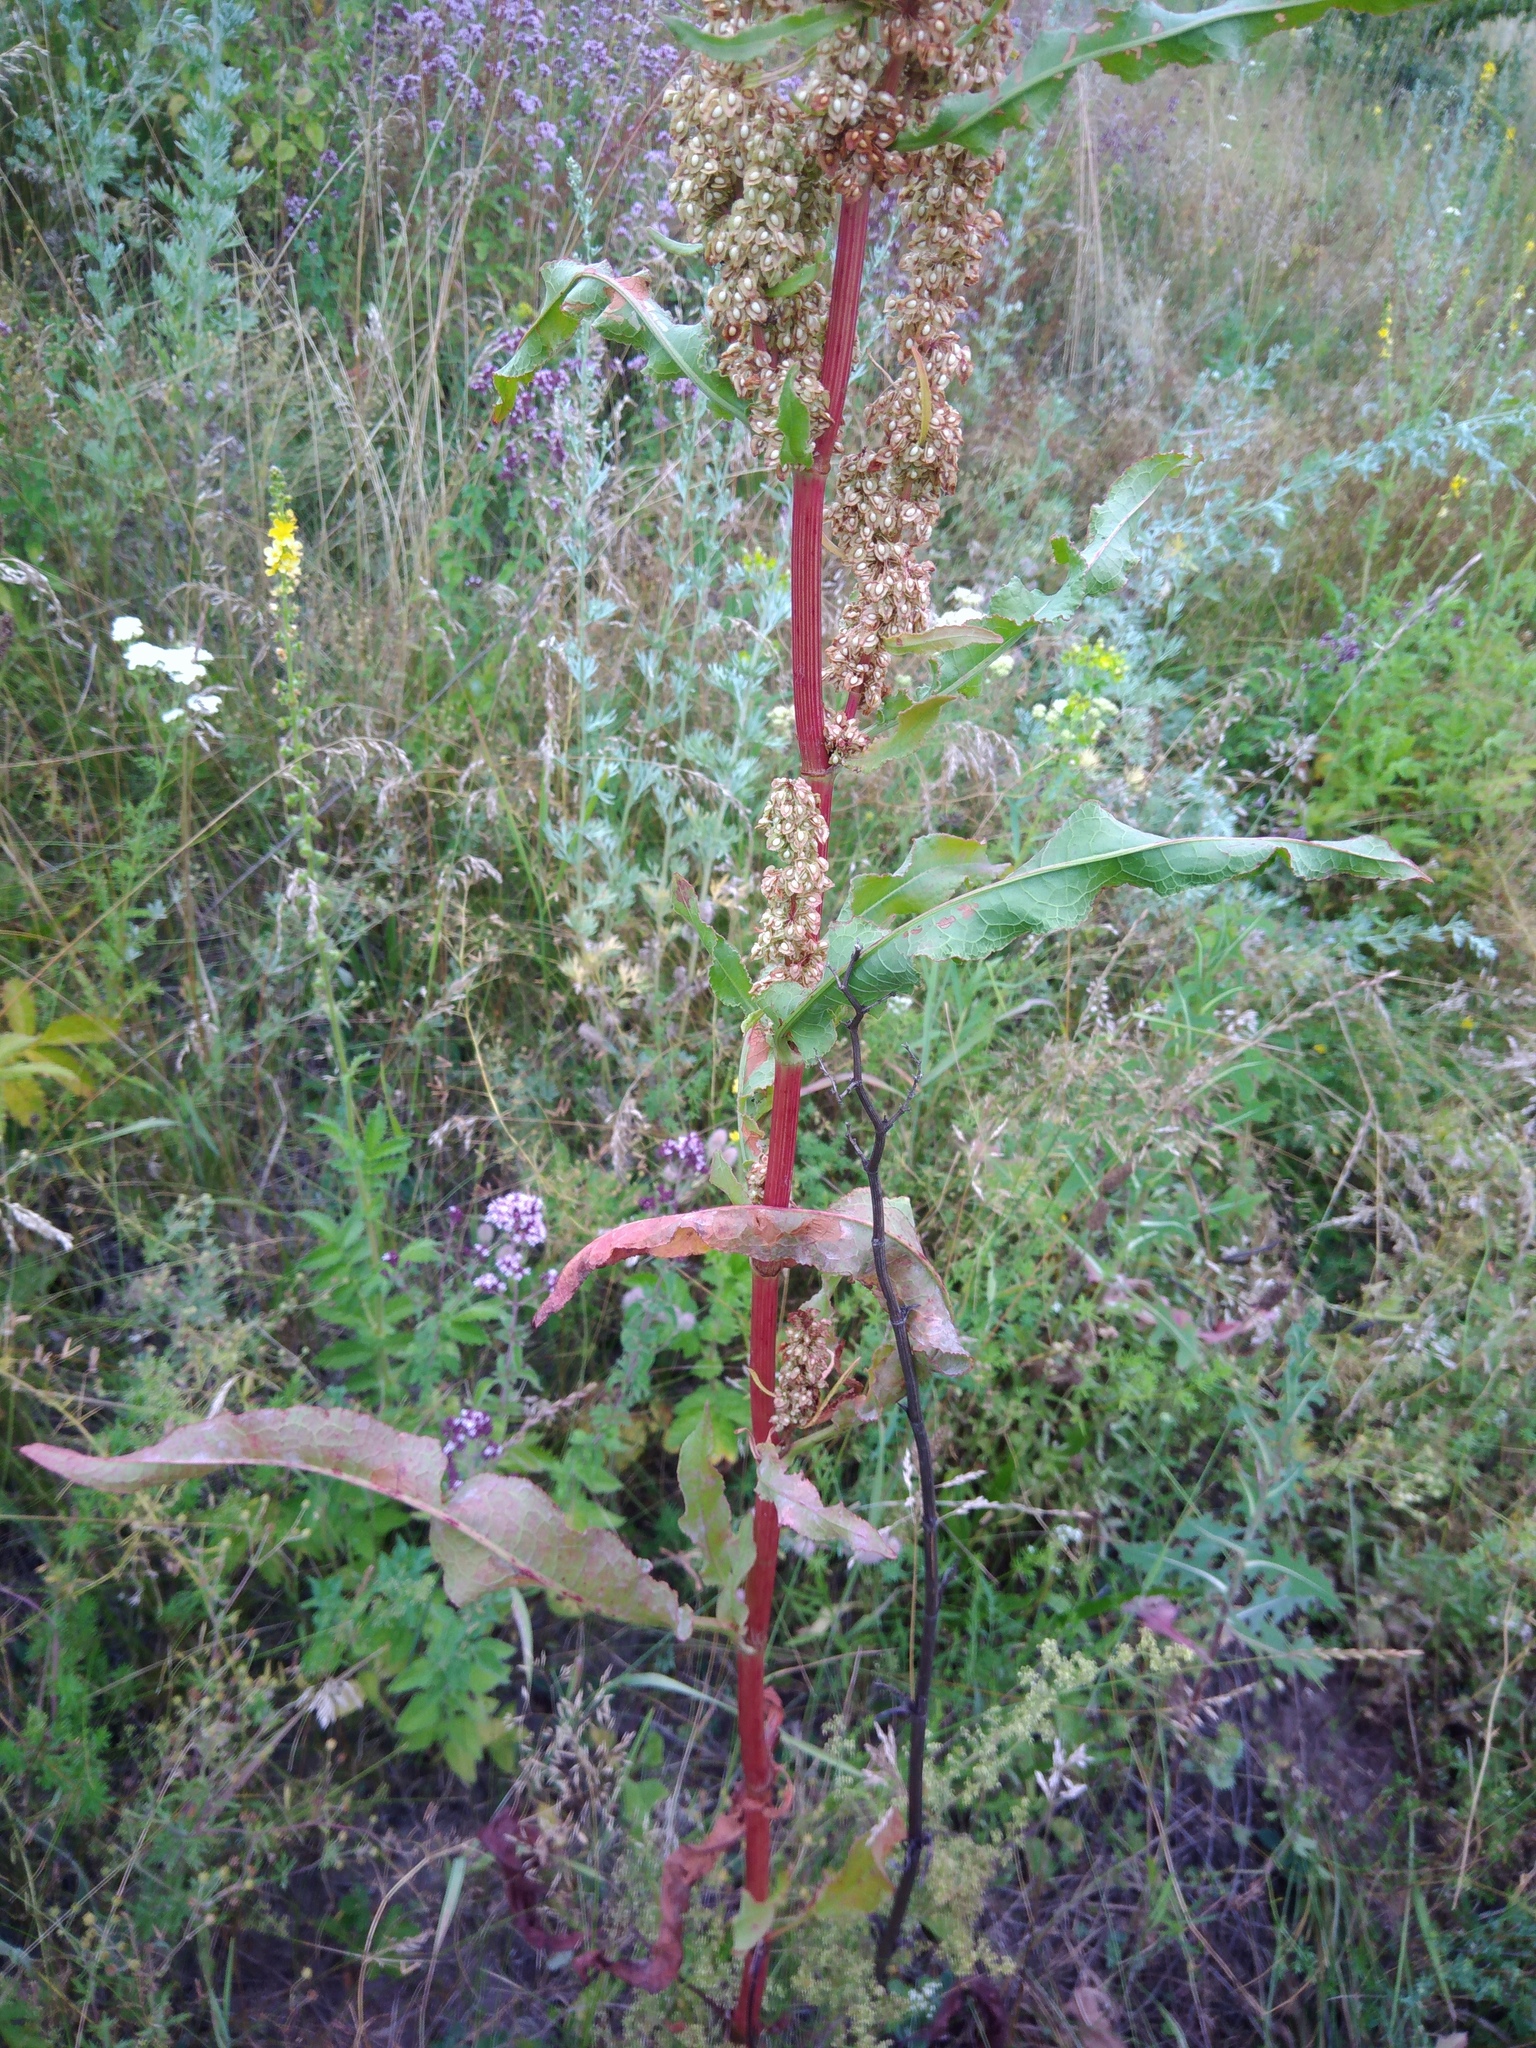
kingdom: Plantae
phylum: Tracheophyta
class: Magnoliopsida
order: Caryophyllales
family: Polygonaceae
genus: Rumex
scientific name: Rumex crispus
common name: Curled dock
